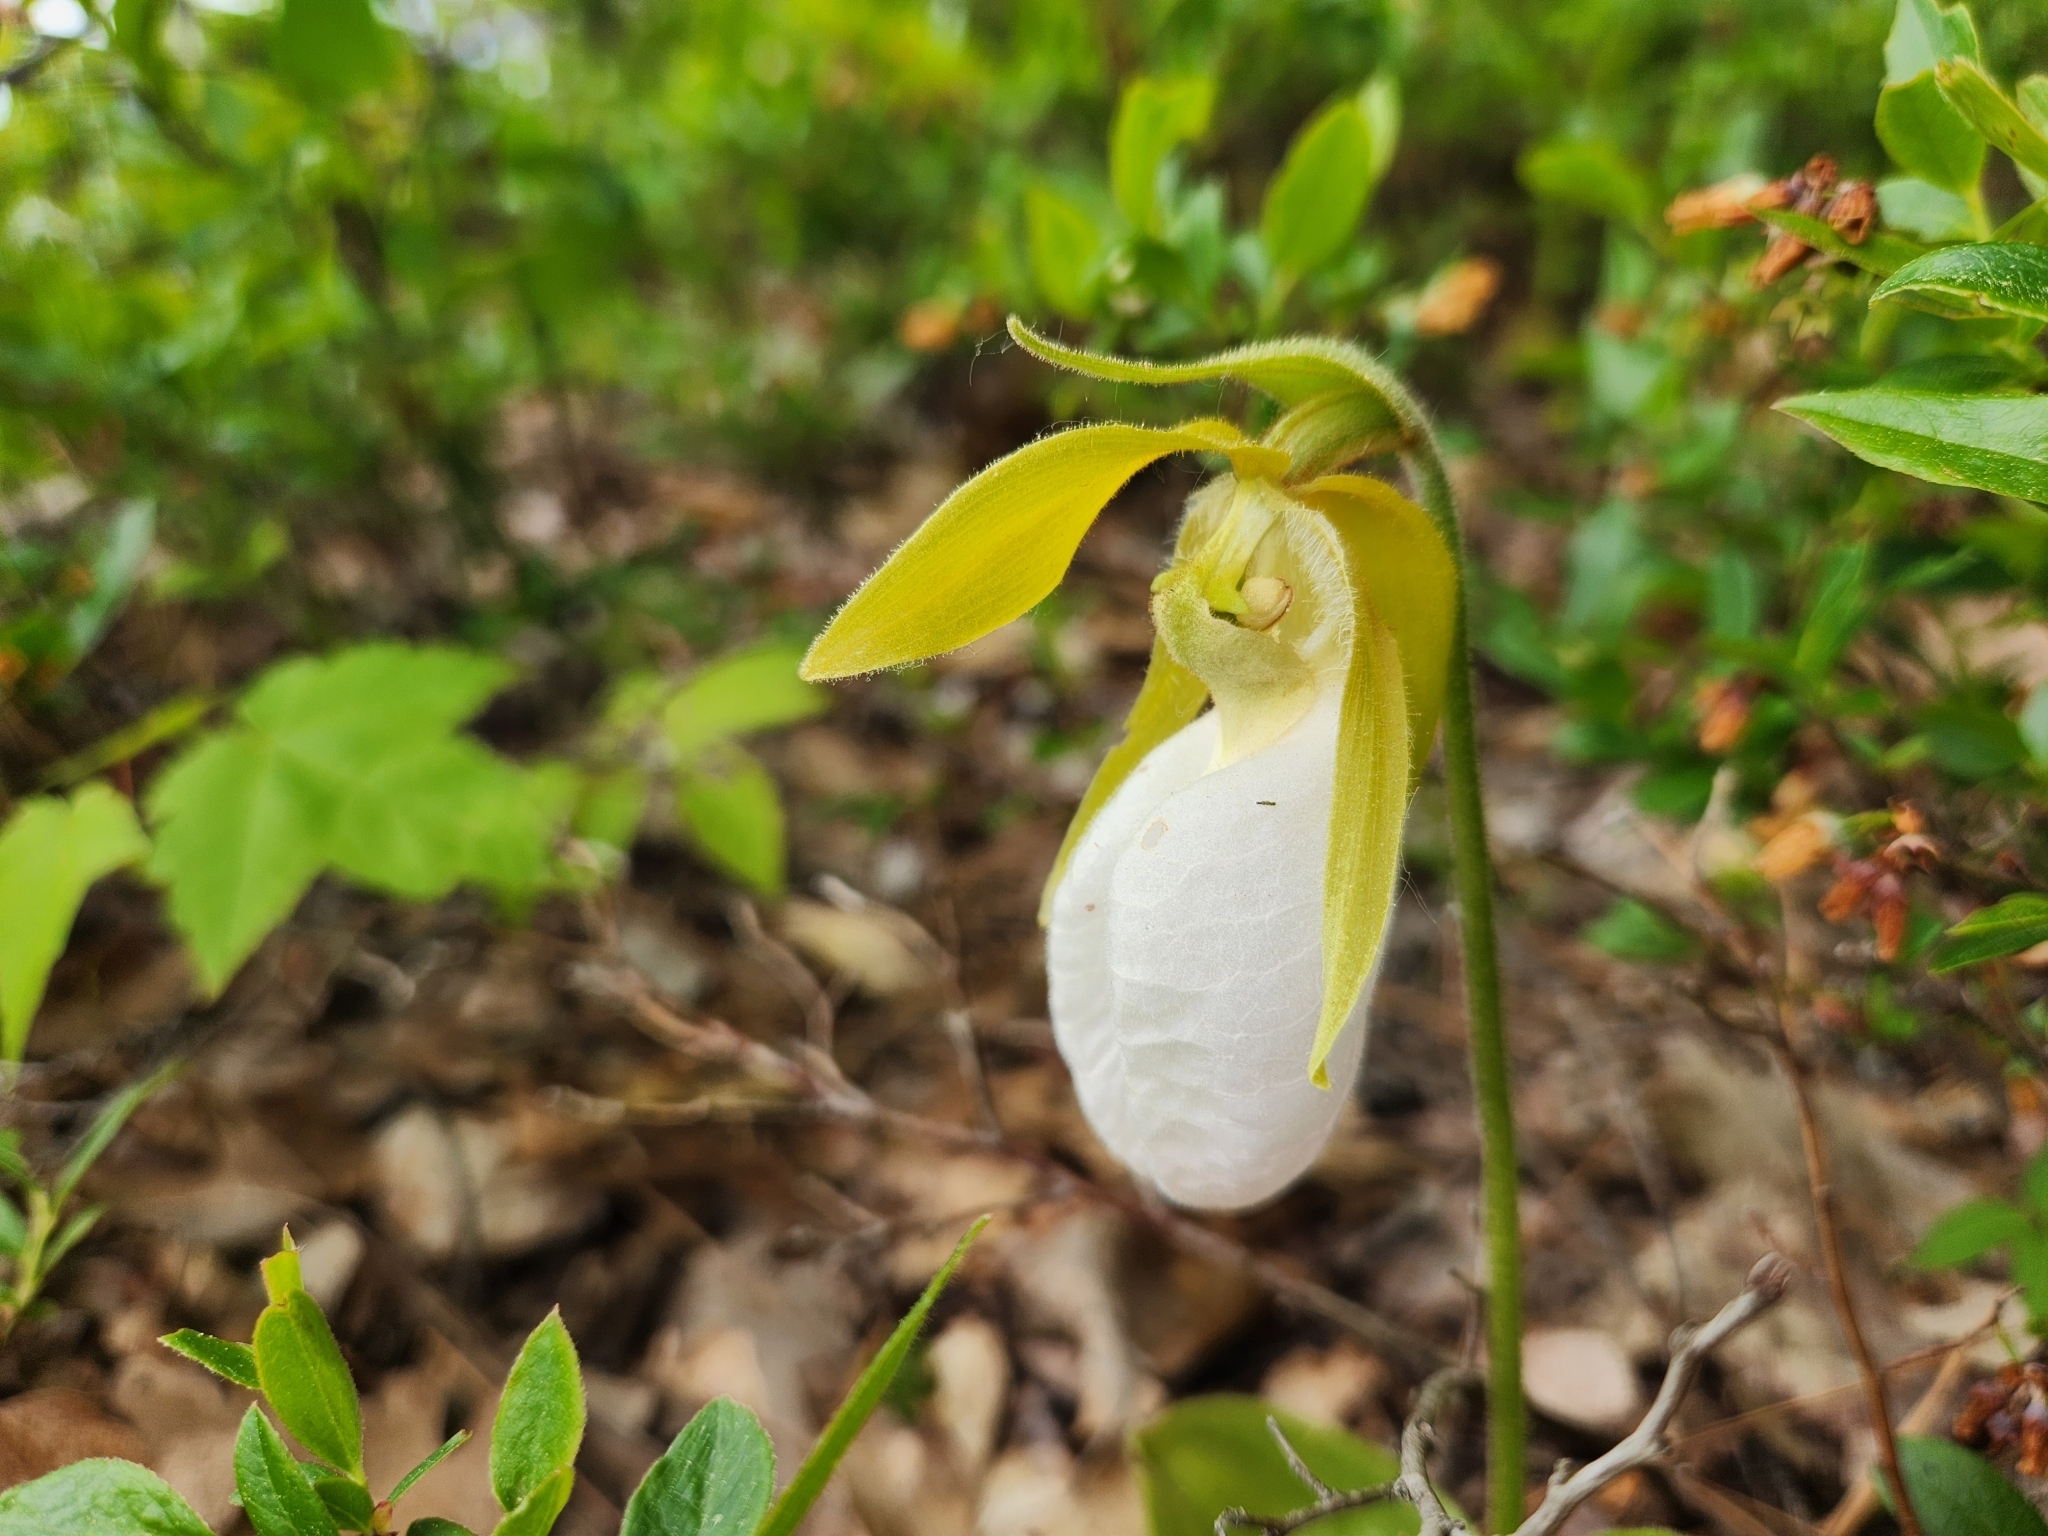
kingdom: Plantae
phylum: Tracheophyta
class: Liliopsida
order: Asparagales
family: Orchidaceae
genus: Cypripedium
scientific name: Cypripedium acaule
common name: Pink lady's-slipper
